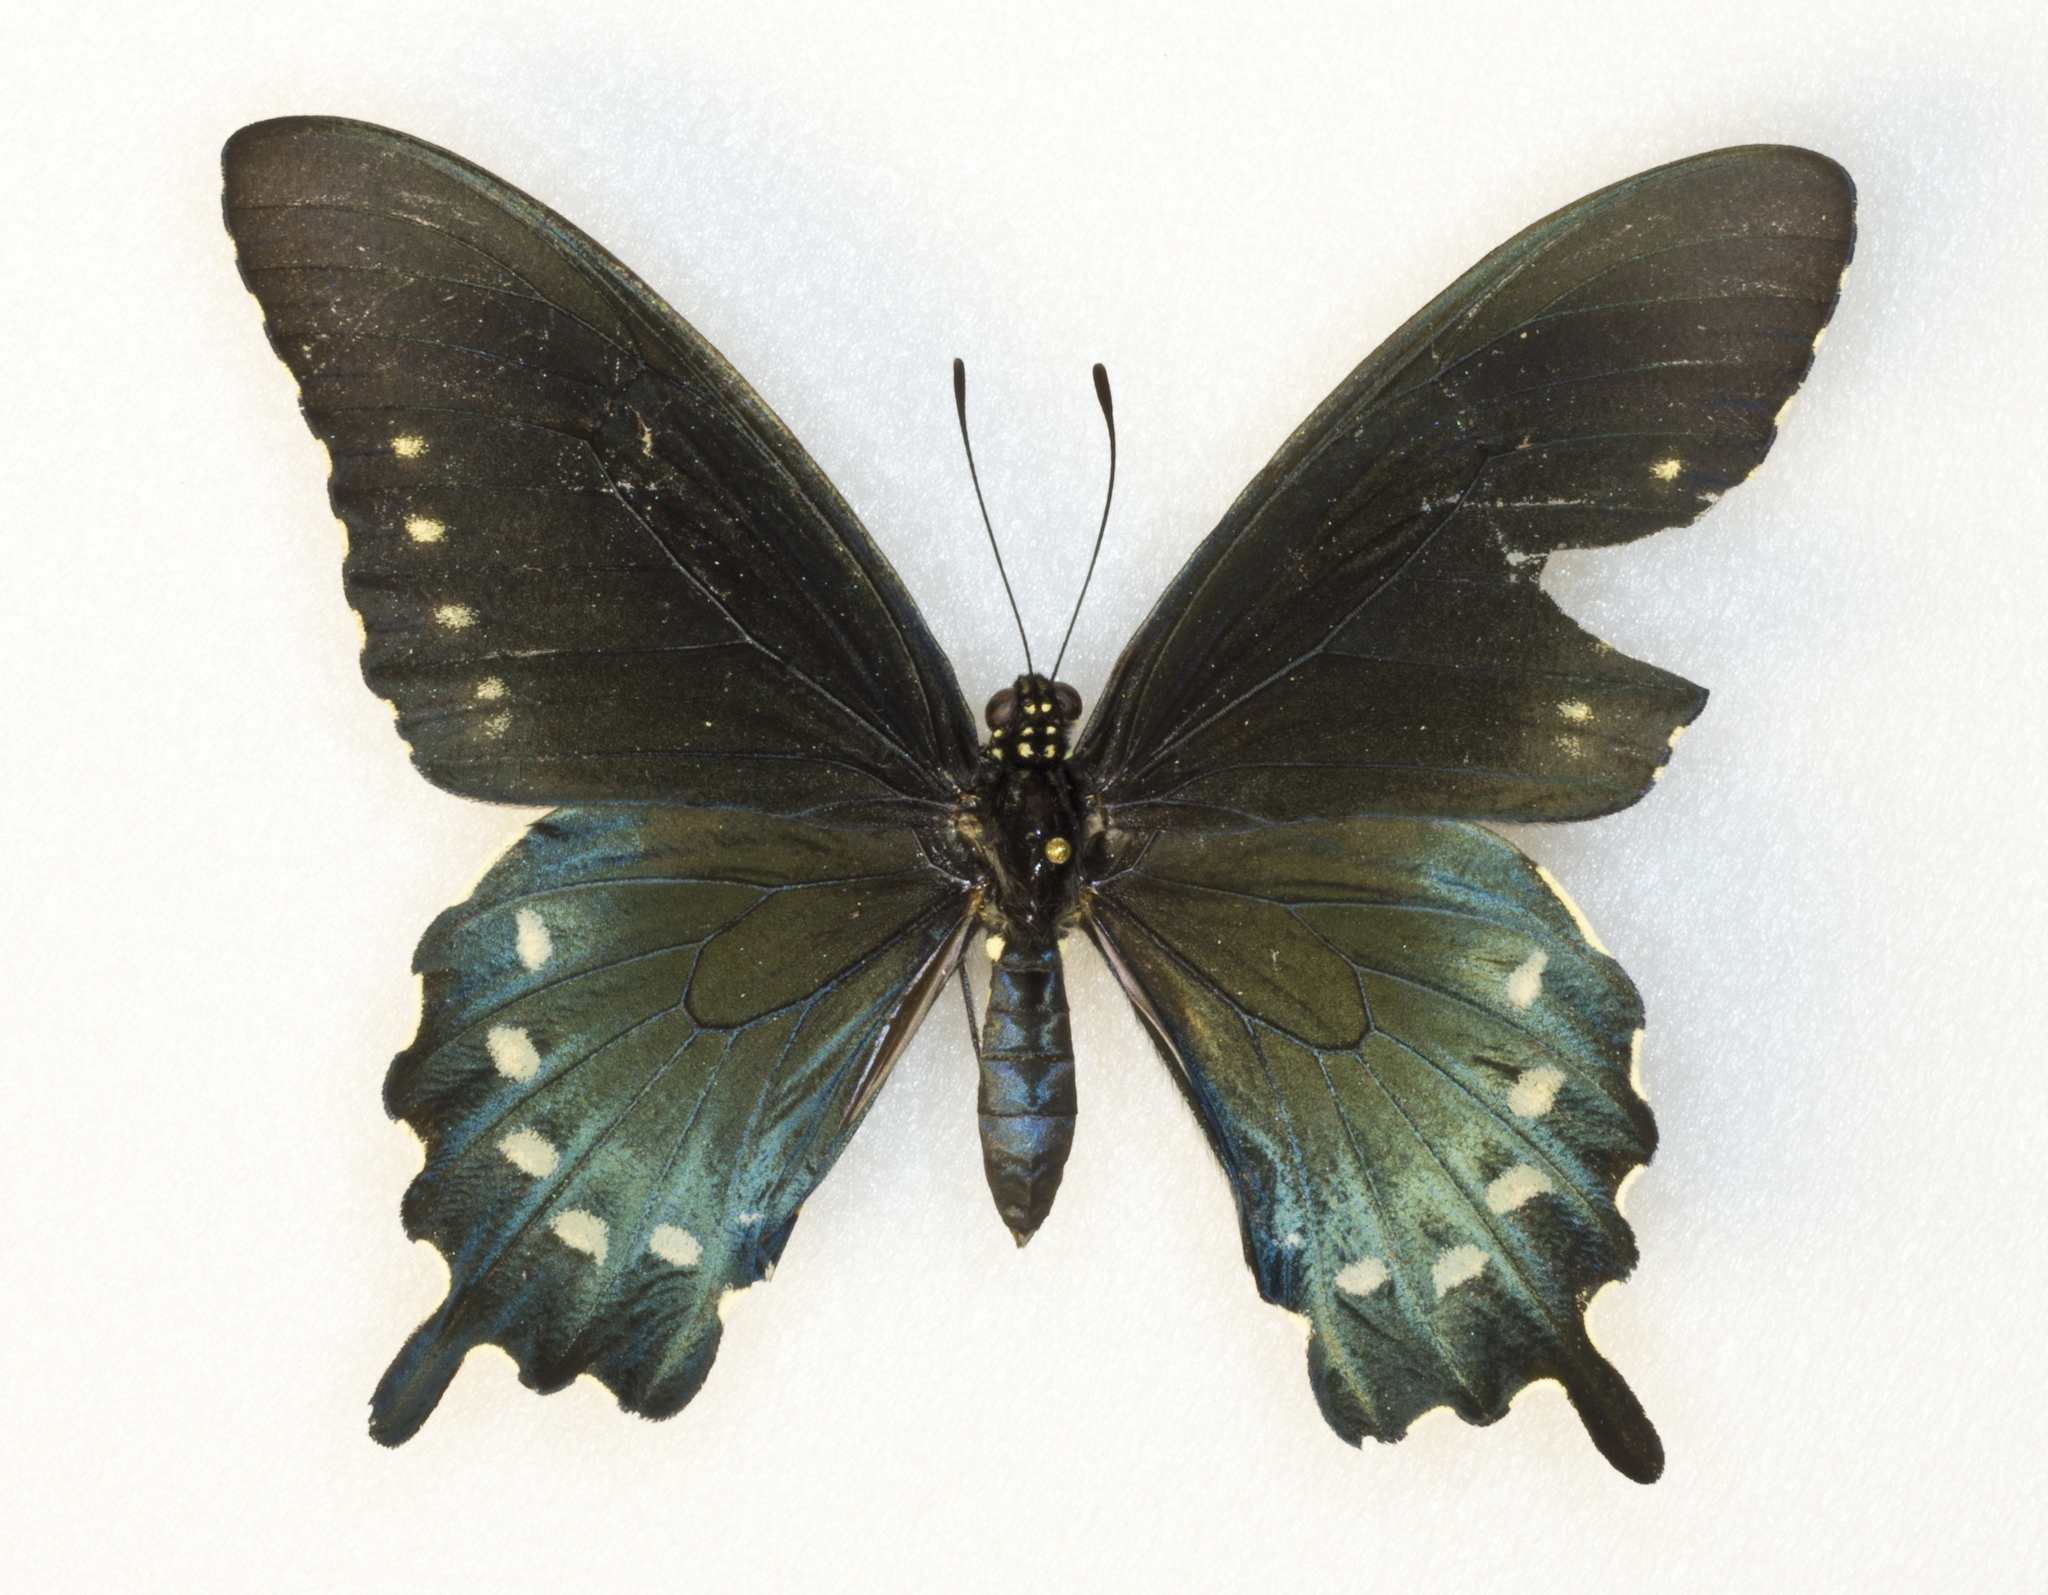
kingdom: Animalia
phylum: Arthropoda
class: Insecta
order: Lepidoptera
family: Papilionidae
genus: Battus
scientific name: Battus philenor
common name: Pipevine swallowtail
